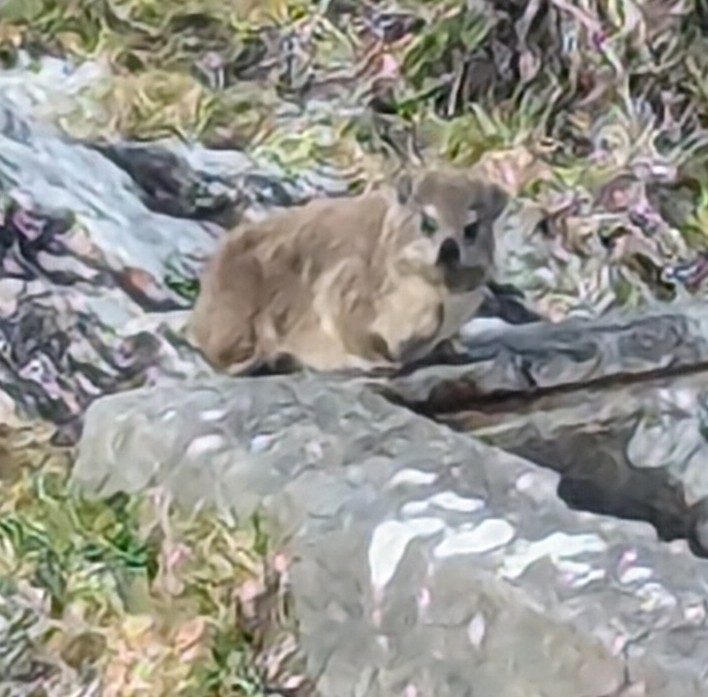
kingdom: Animalia
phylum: Chordata
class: Mammalia
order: Hyracoidea
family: Procaviidae
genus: Procavia
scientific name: Procavia capensis
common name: Rock hyrax
